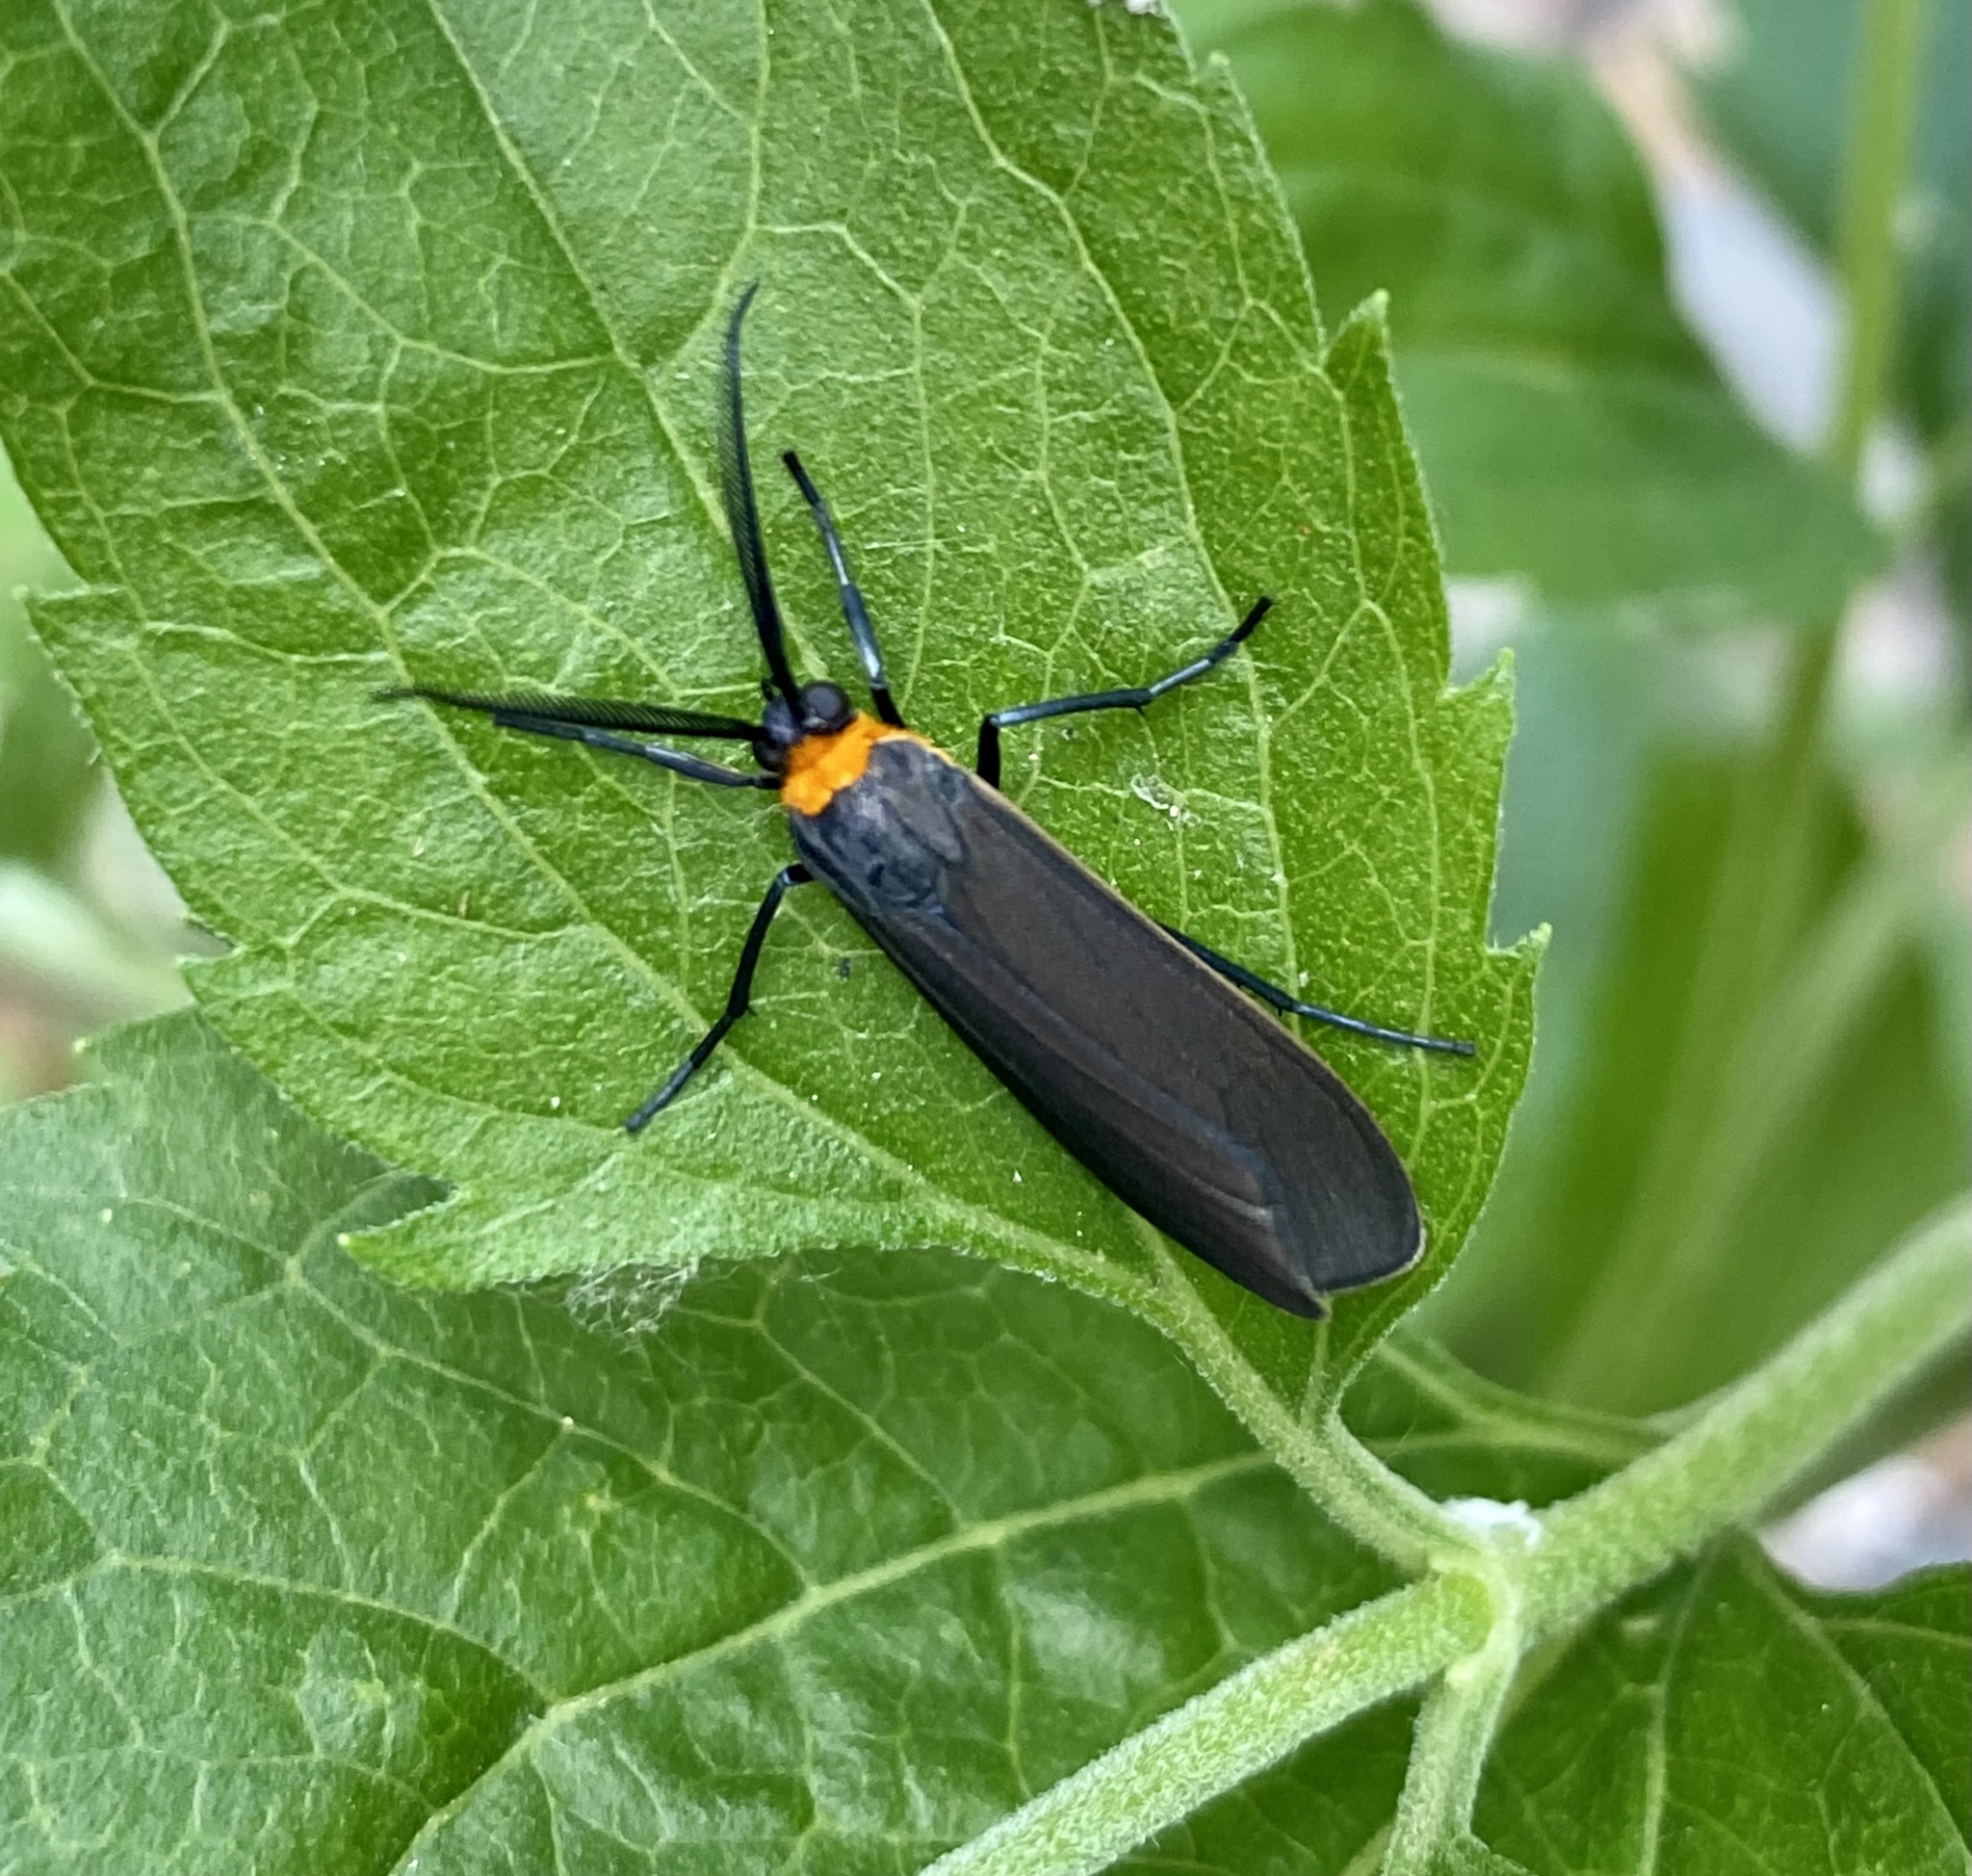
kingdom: Animalia
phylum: Arthropoda
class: Insecta
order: Lepidoptera
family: Erebidae
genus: Cisseps
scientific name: Cisseps fulvicollis
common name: Yellow-collared scape moth
